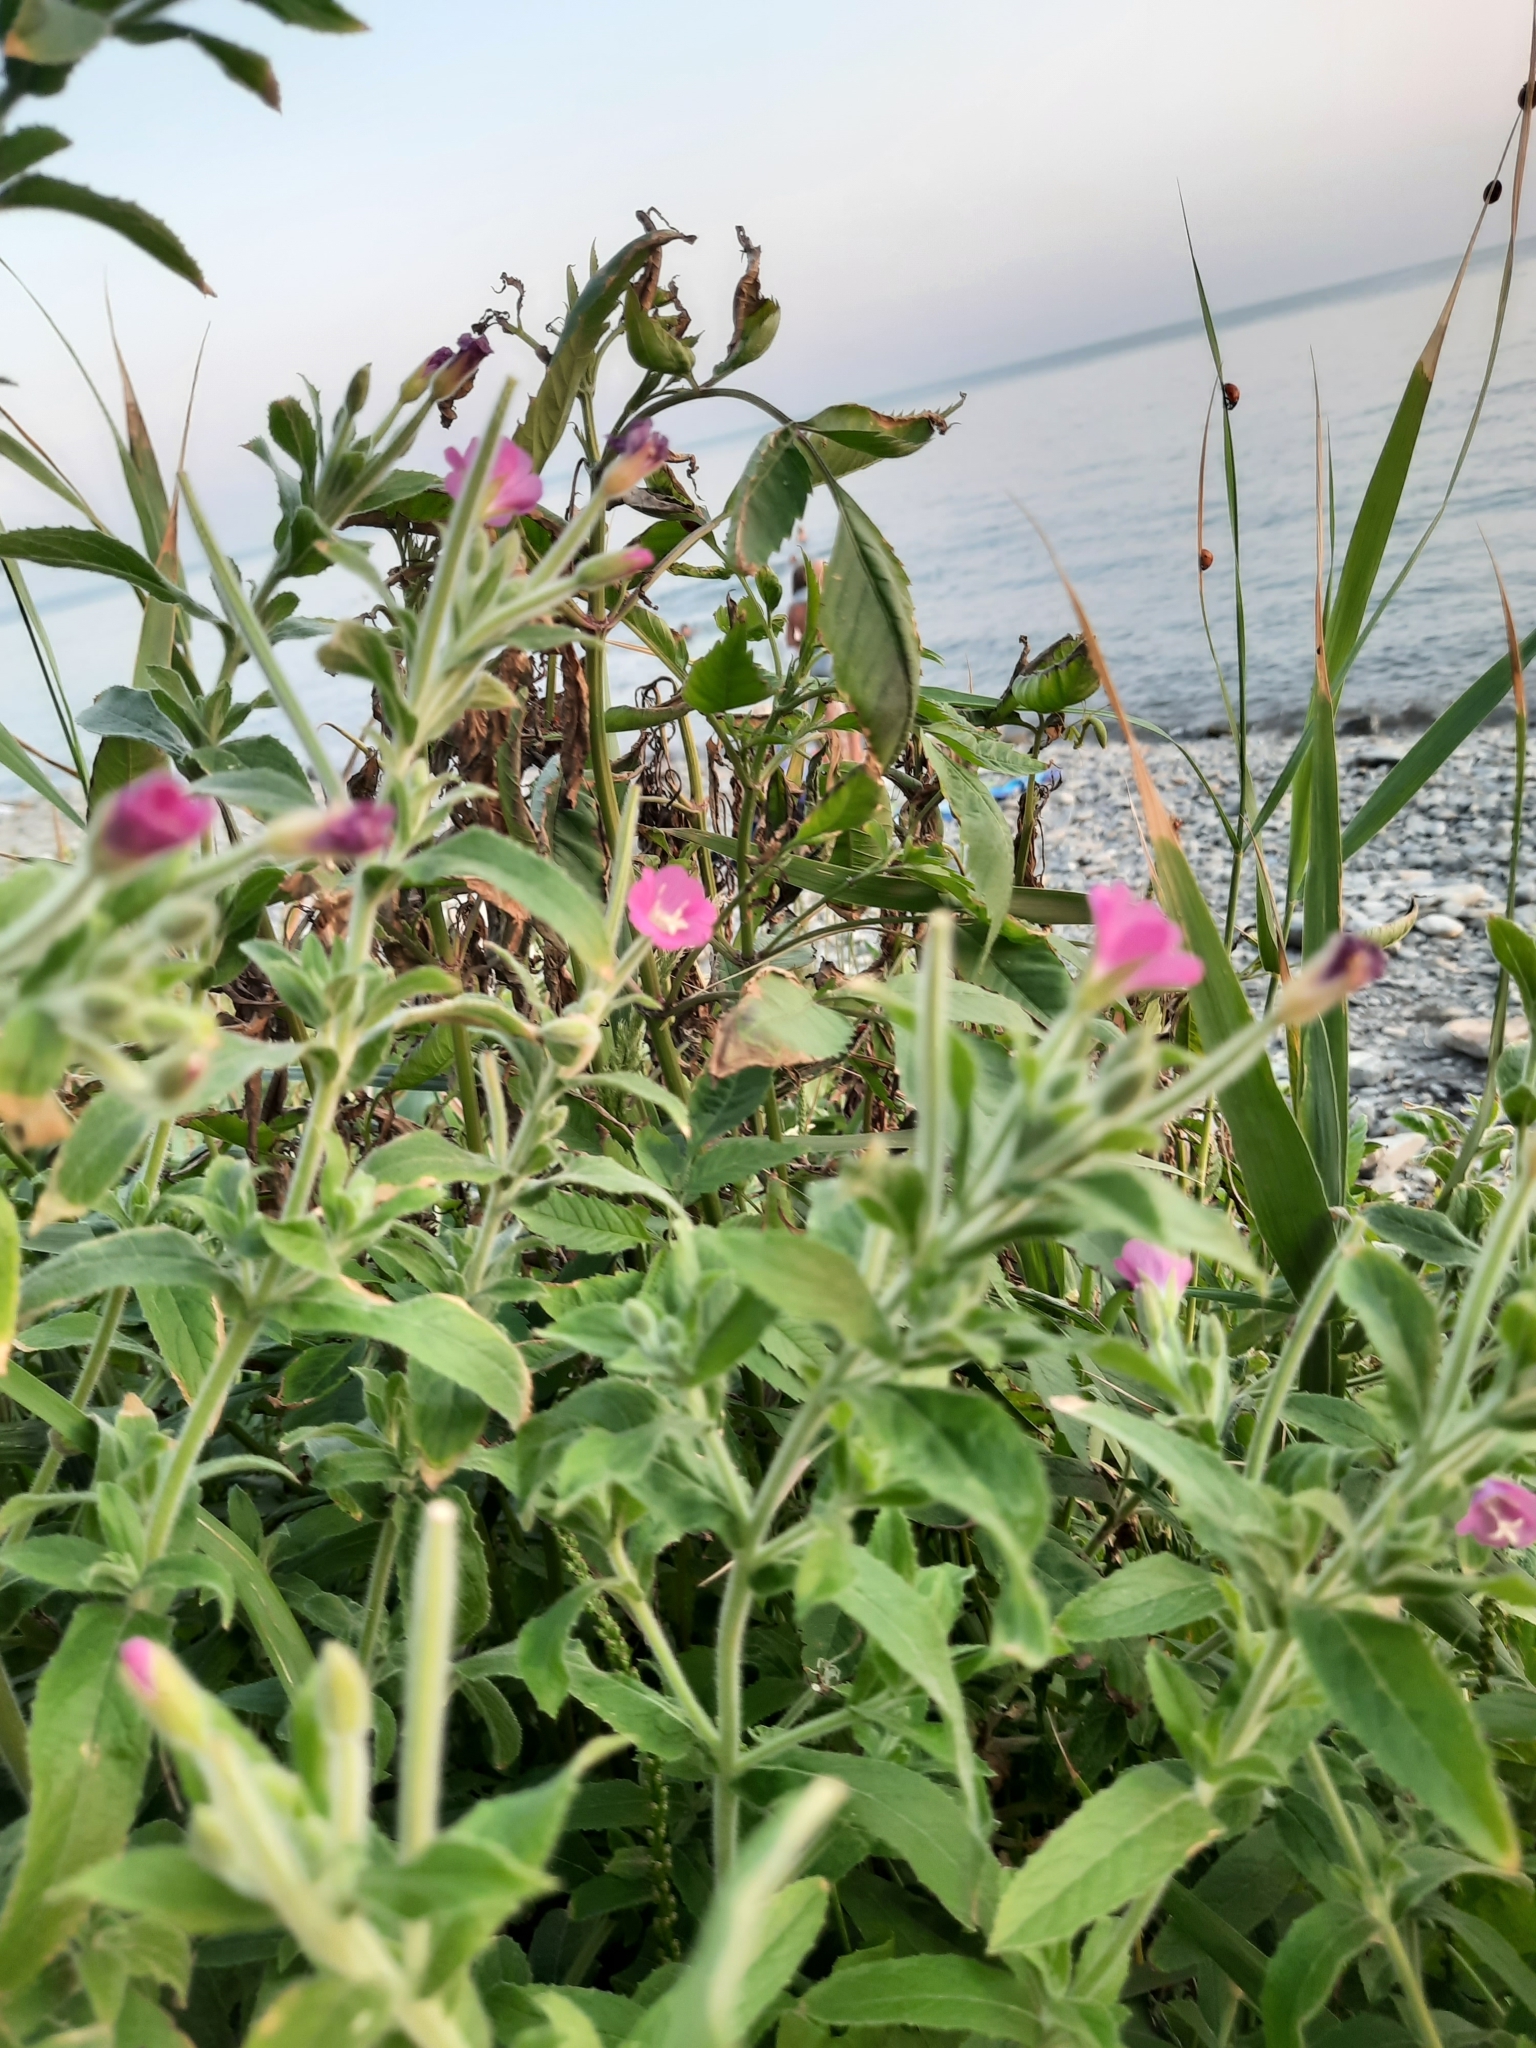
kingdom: Plantae
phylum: Tracheophyta
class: Magnoliopsida
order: Myrtales
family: Onagraceae
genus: Epilobium
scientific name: Epilobium hirsutum
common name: Great willowherb
